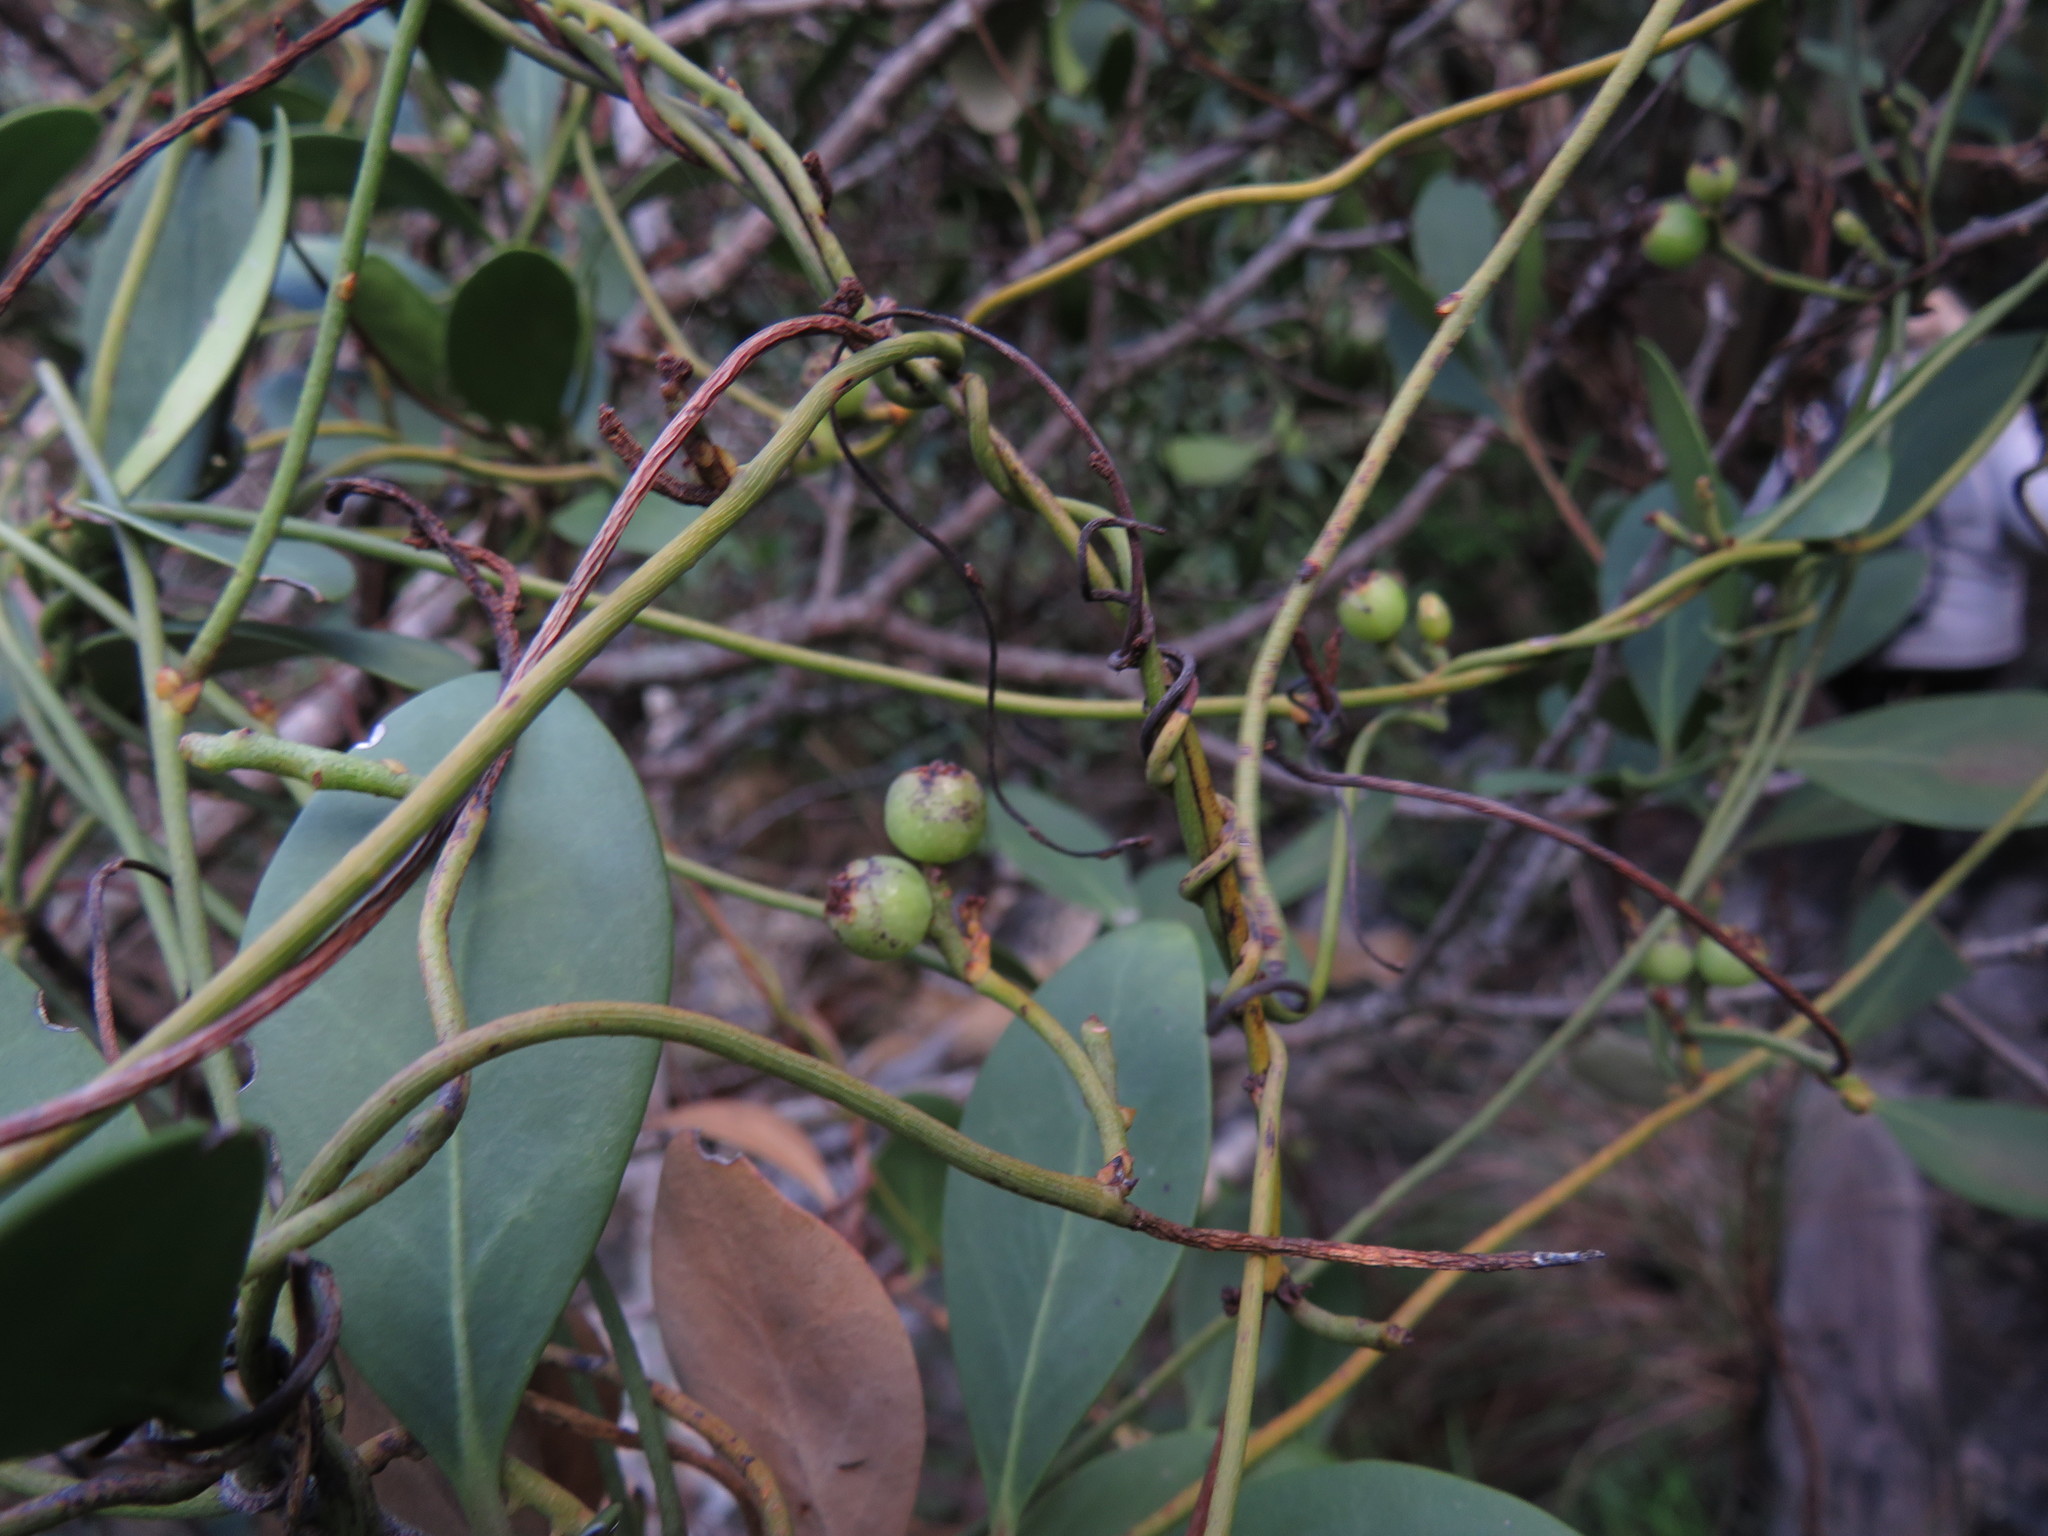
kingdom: Plantae
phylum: Tracheophyta
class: Magnoliopsida
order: Laurales
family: Lauraceae
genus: Cassytha
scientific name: Cassytha ciliolata
